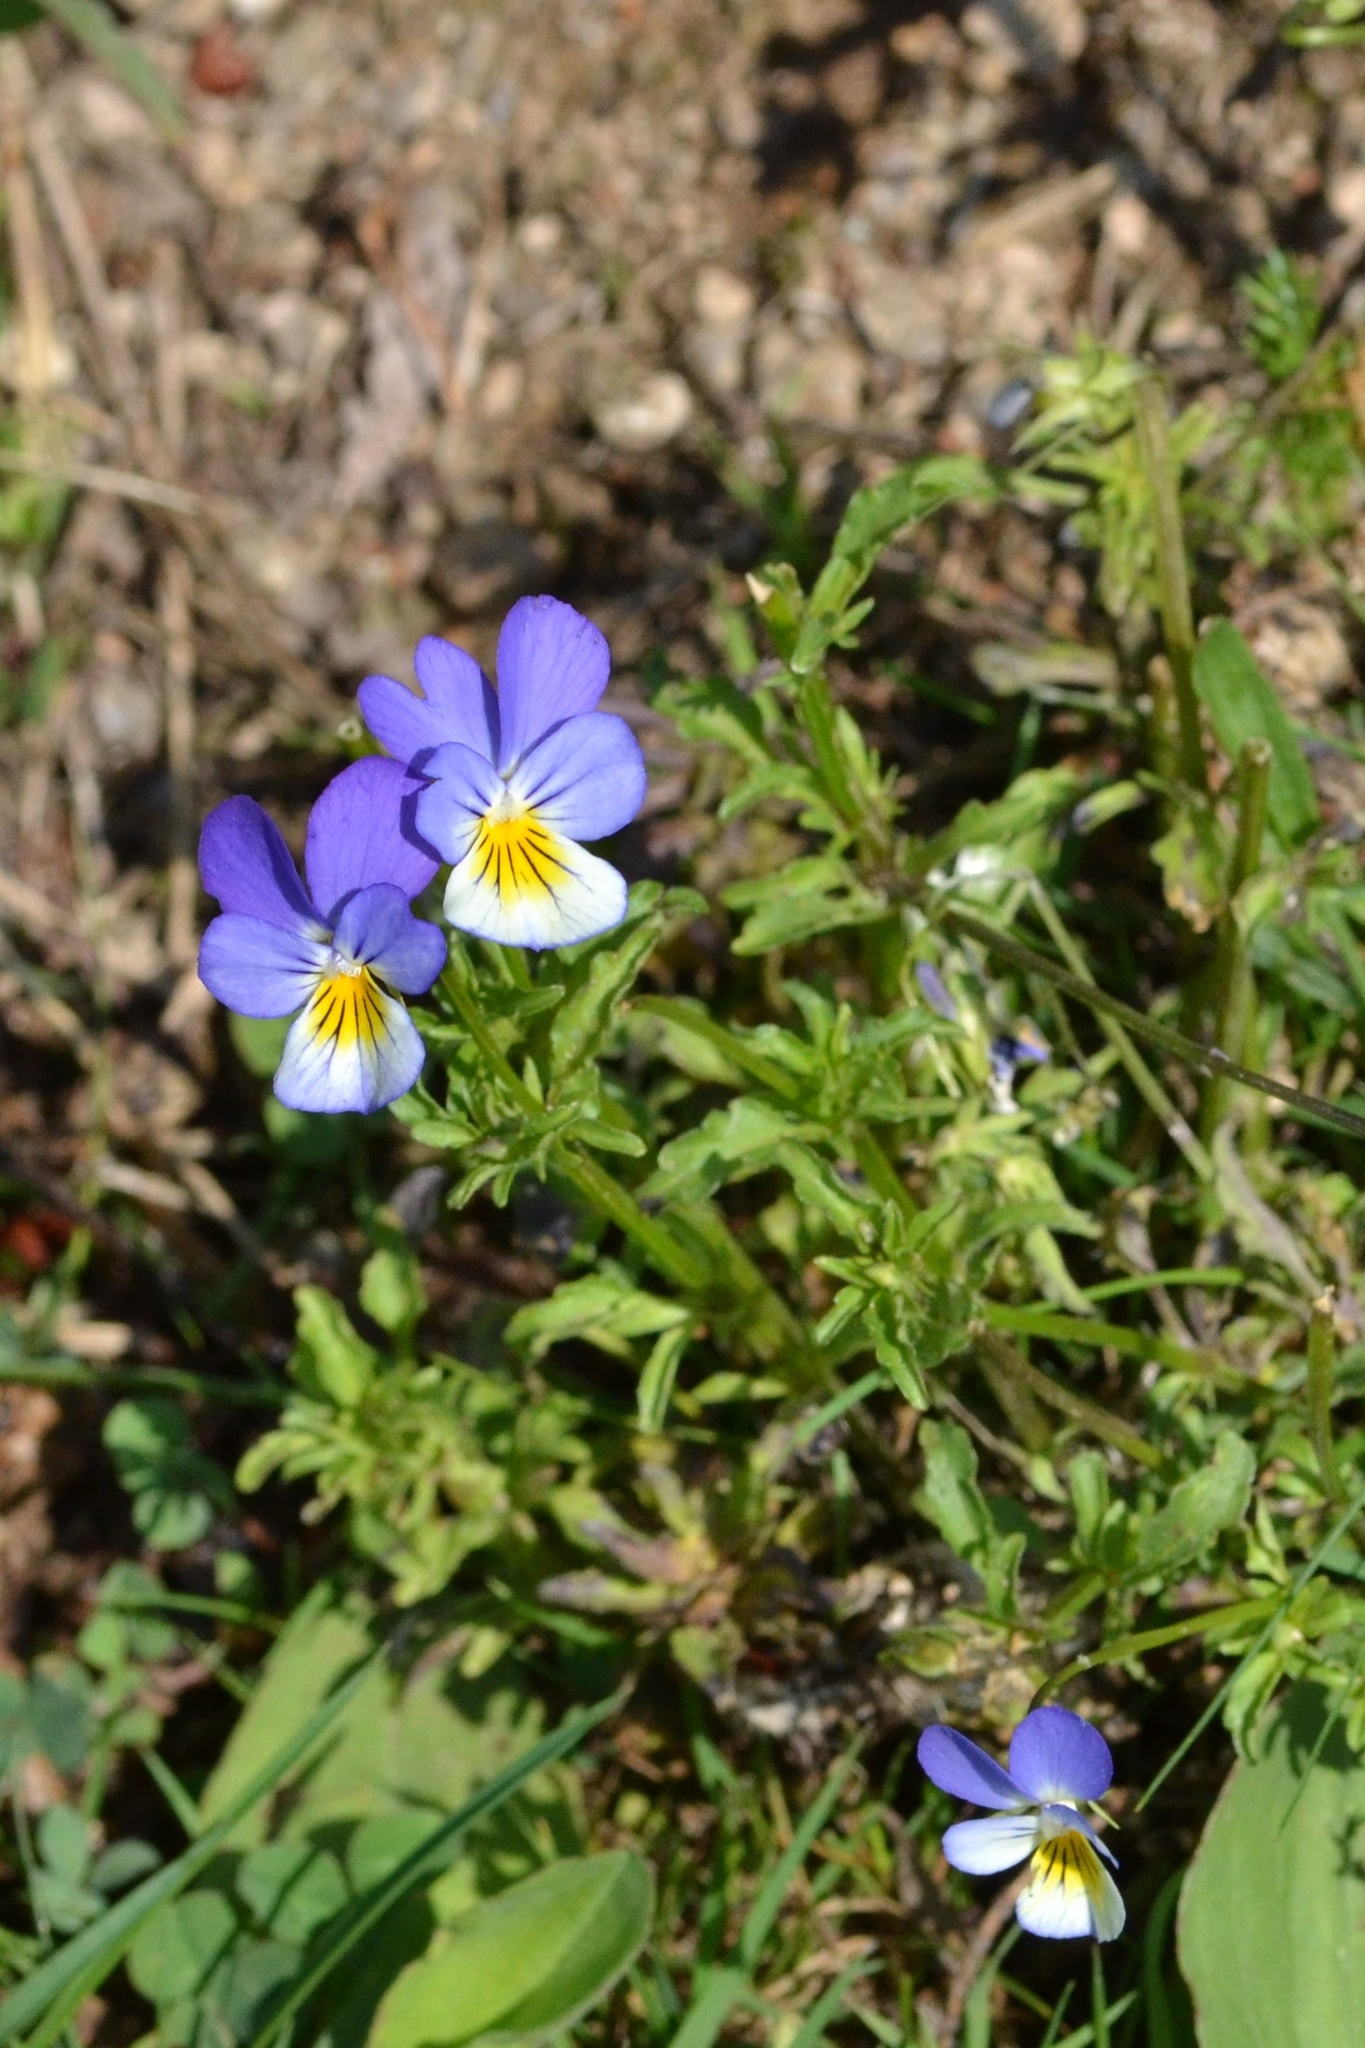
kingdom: Plantae
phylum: Tracheophyta
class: Magnoliopsida
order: Malpighiales
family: Violaceae
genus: Viola
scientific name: Viola tricolor
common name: Pansy
